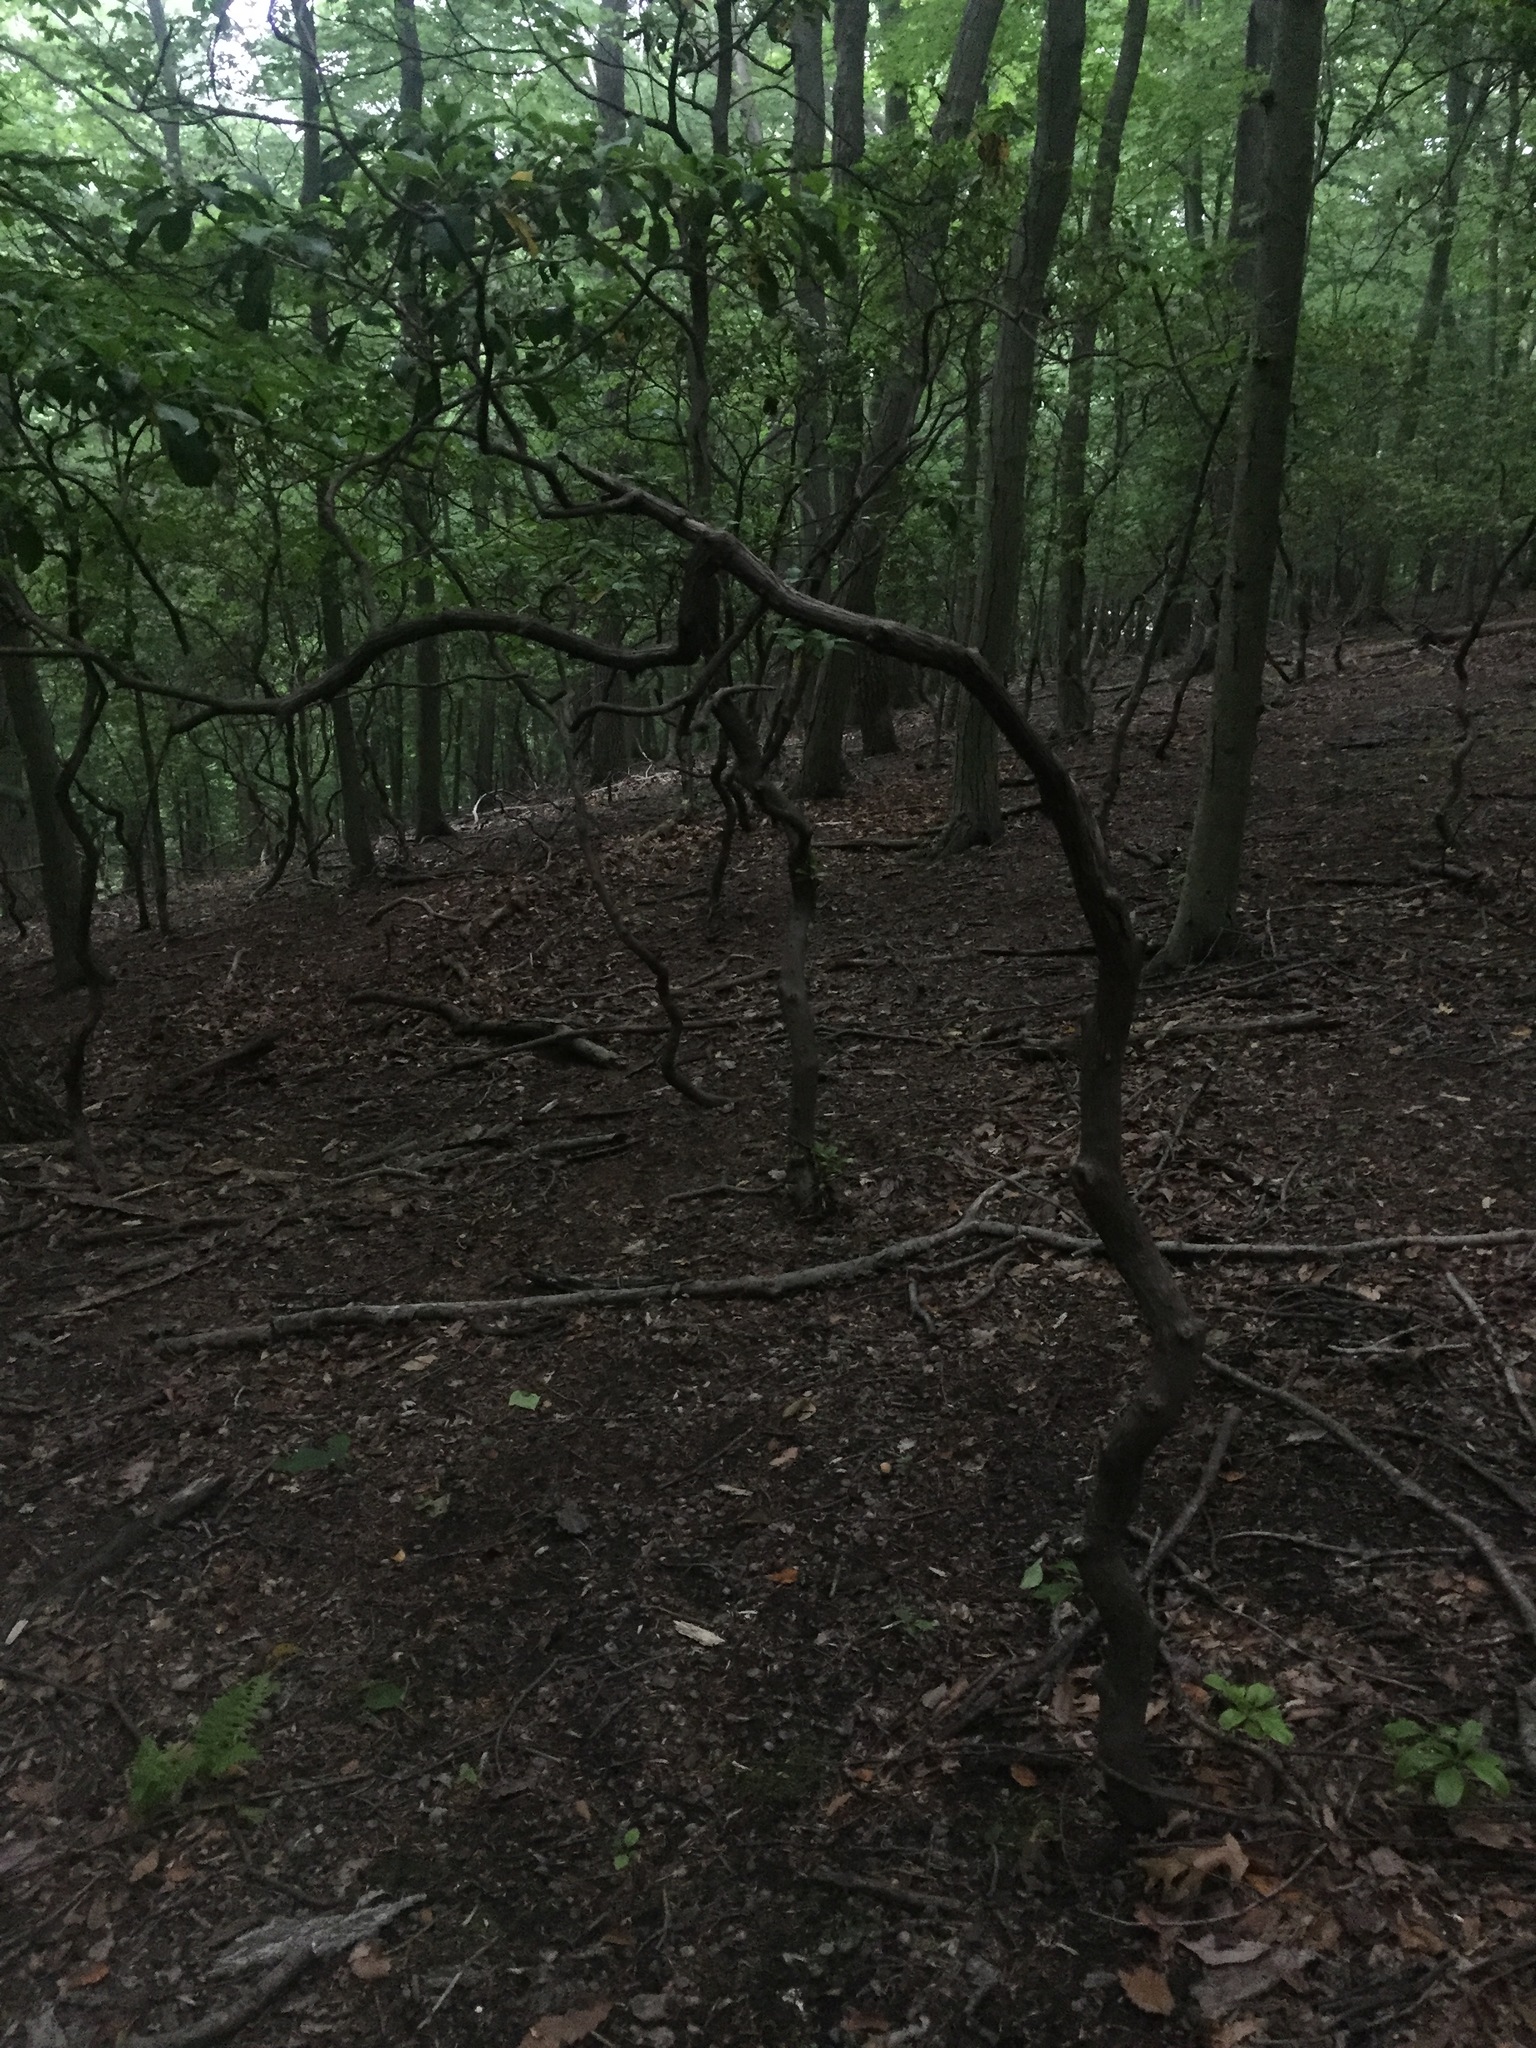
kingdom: Plantae
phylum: Tracheophyta
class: Magnoliopsida
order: Ericales
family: Ericaceae
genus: Kalmia
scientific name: Kalmia latifolia
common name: Mountain-laurel
